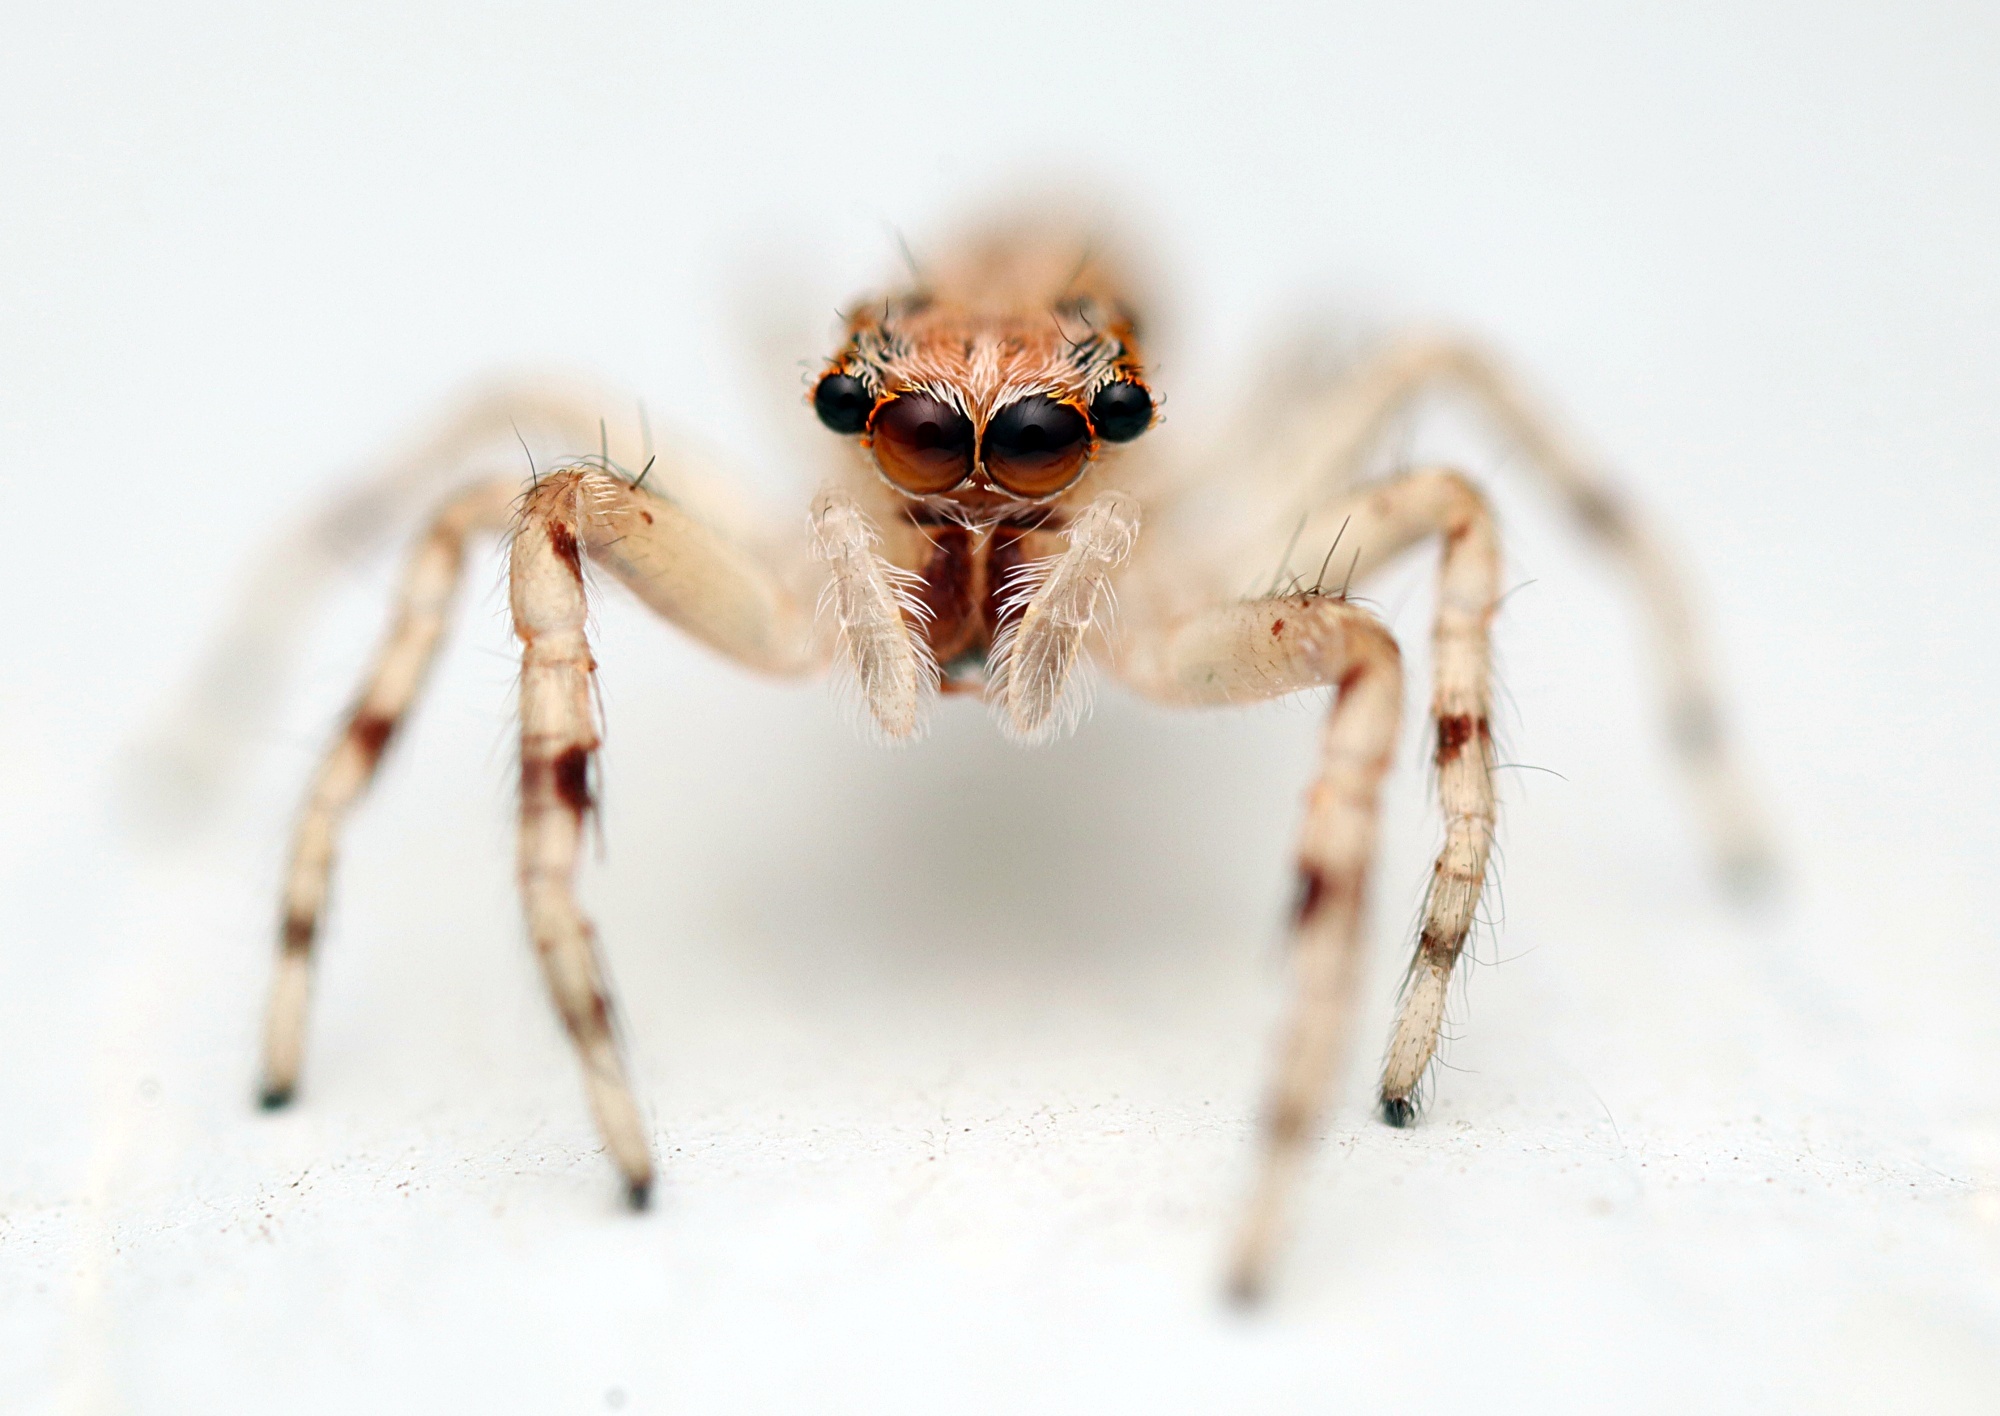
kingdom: Animalia
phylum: Arthropoda
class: Arachnida
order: Araneae
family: Salticidae
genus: Helpis
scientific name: Helpis minitabunda
